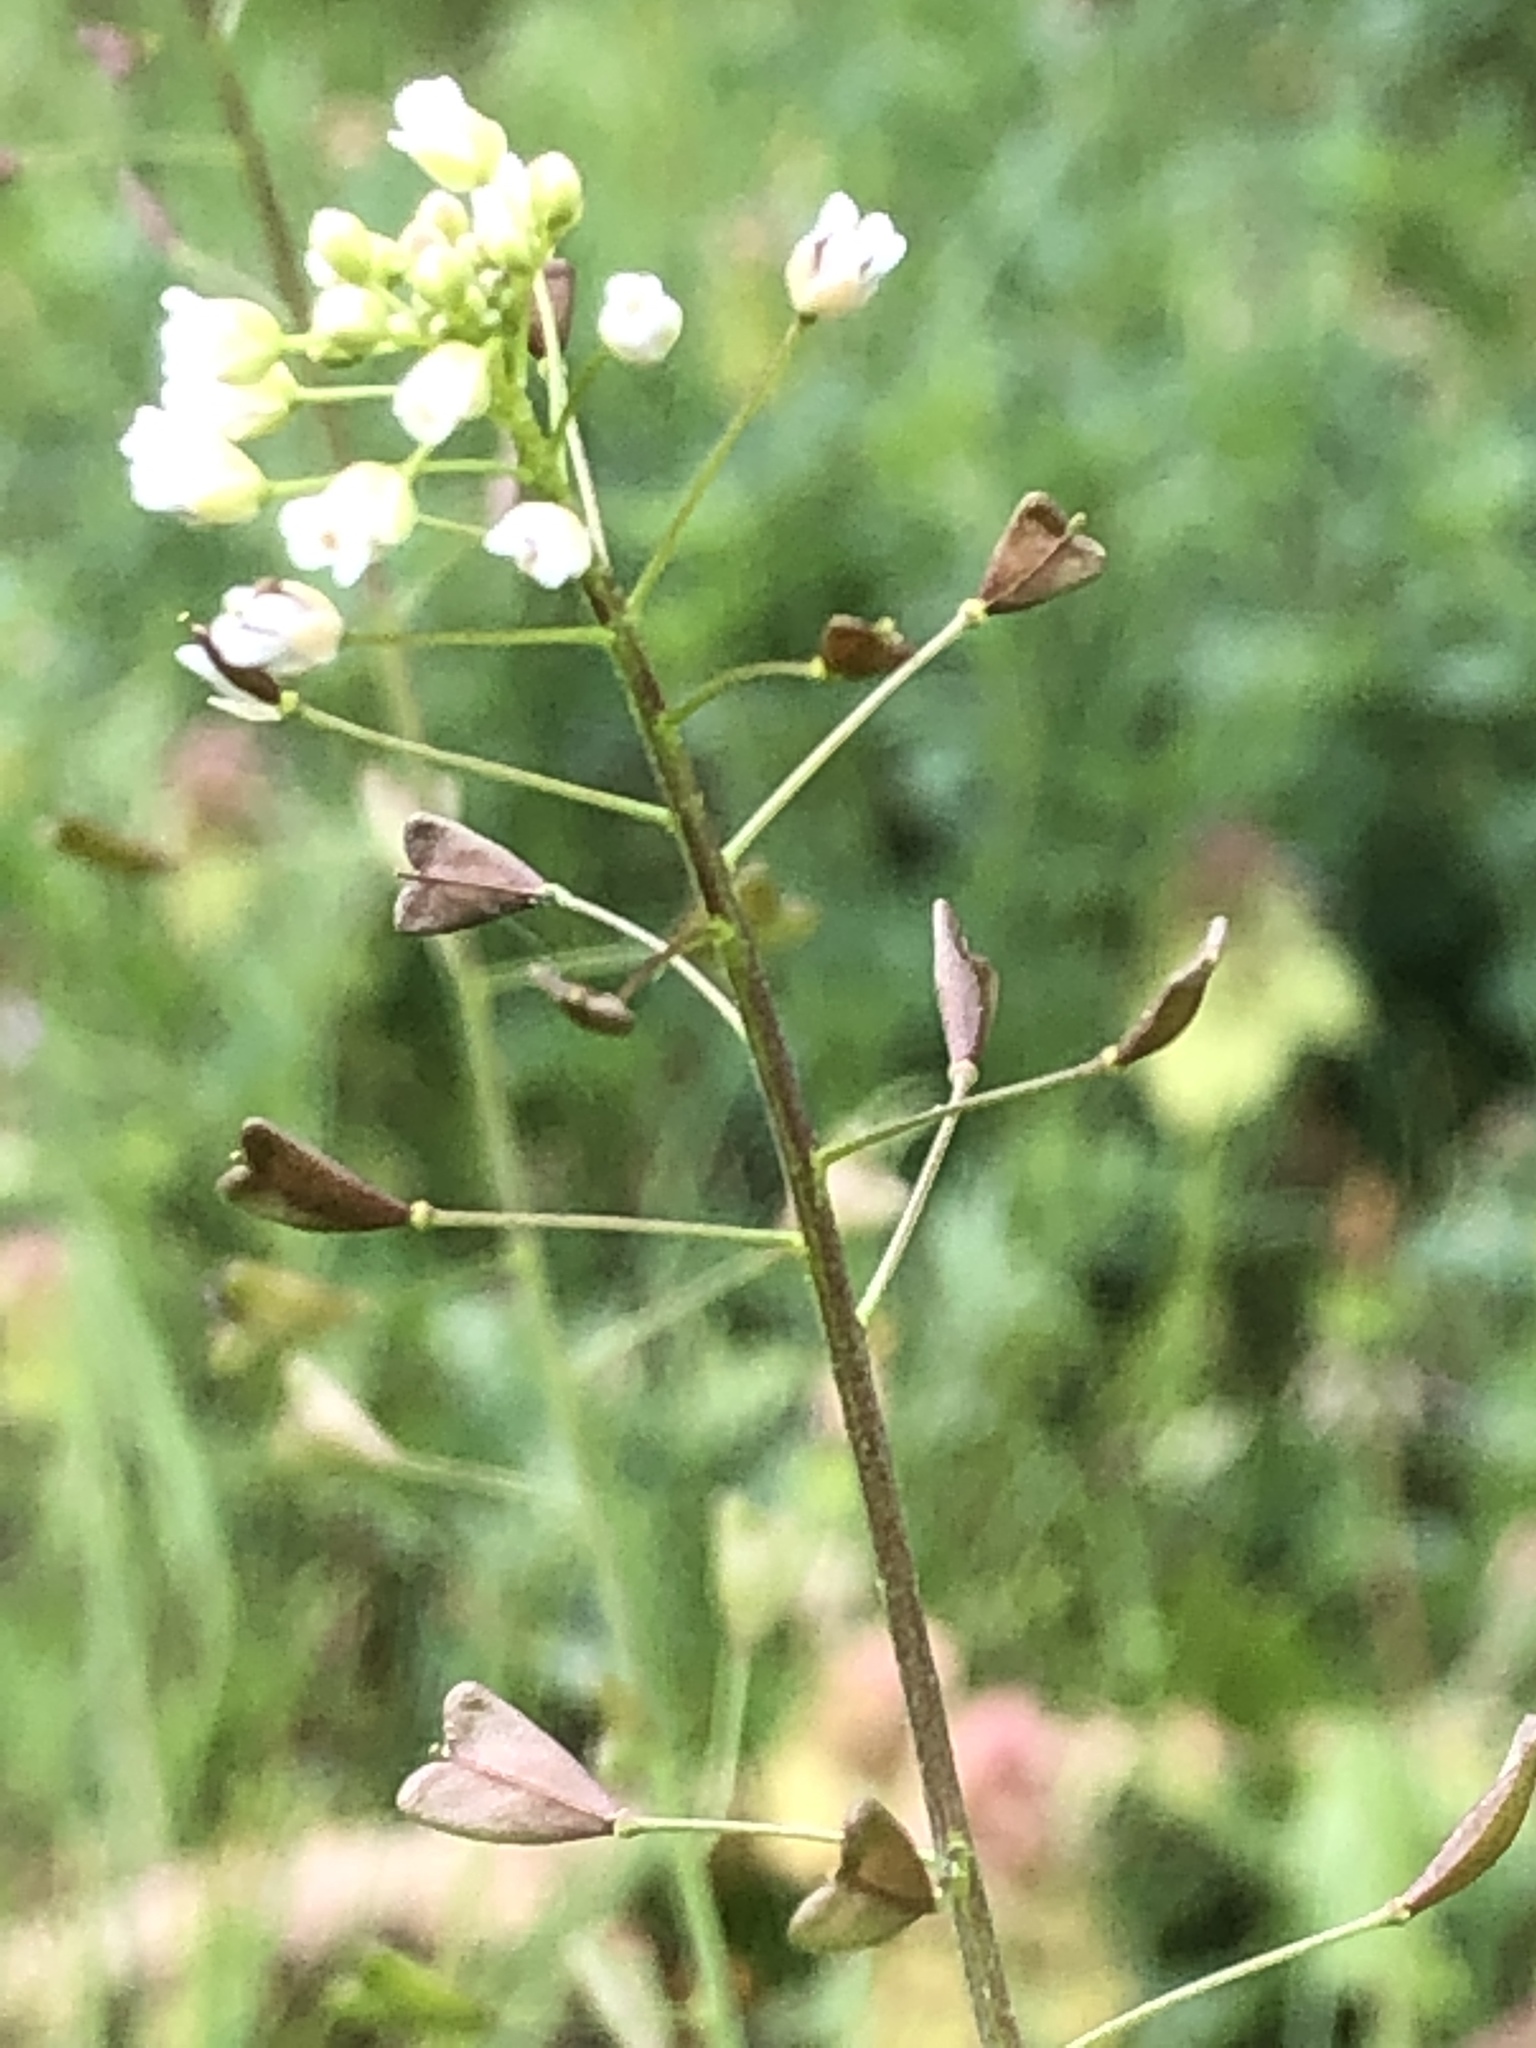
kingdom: Plantae
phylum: Tracheophyta
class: Magnoliopsida
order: Brassicales
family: Brassicaceae
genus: Capsella
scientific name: Capsella bursa-pastoris
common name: Shepherd's purse
